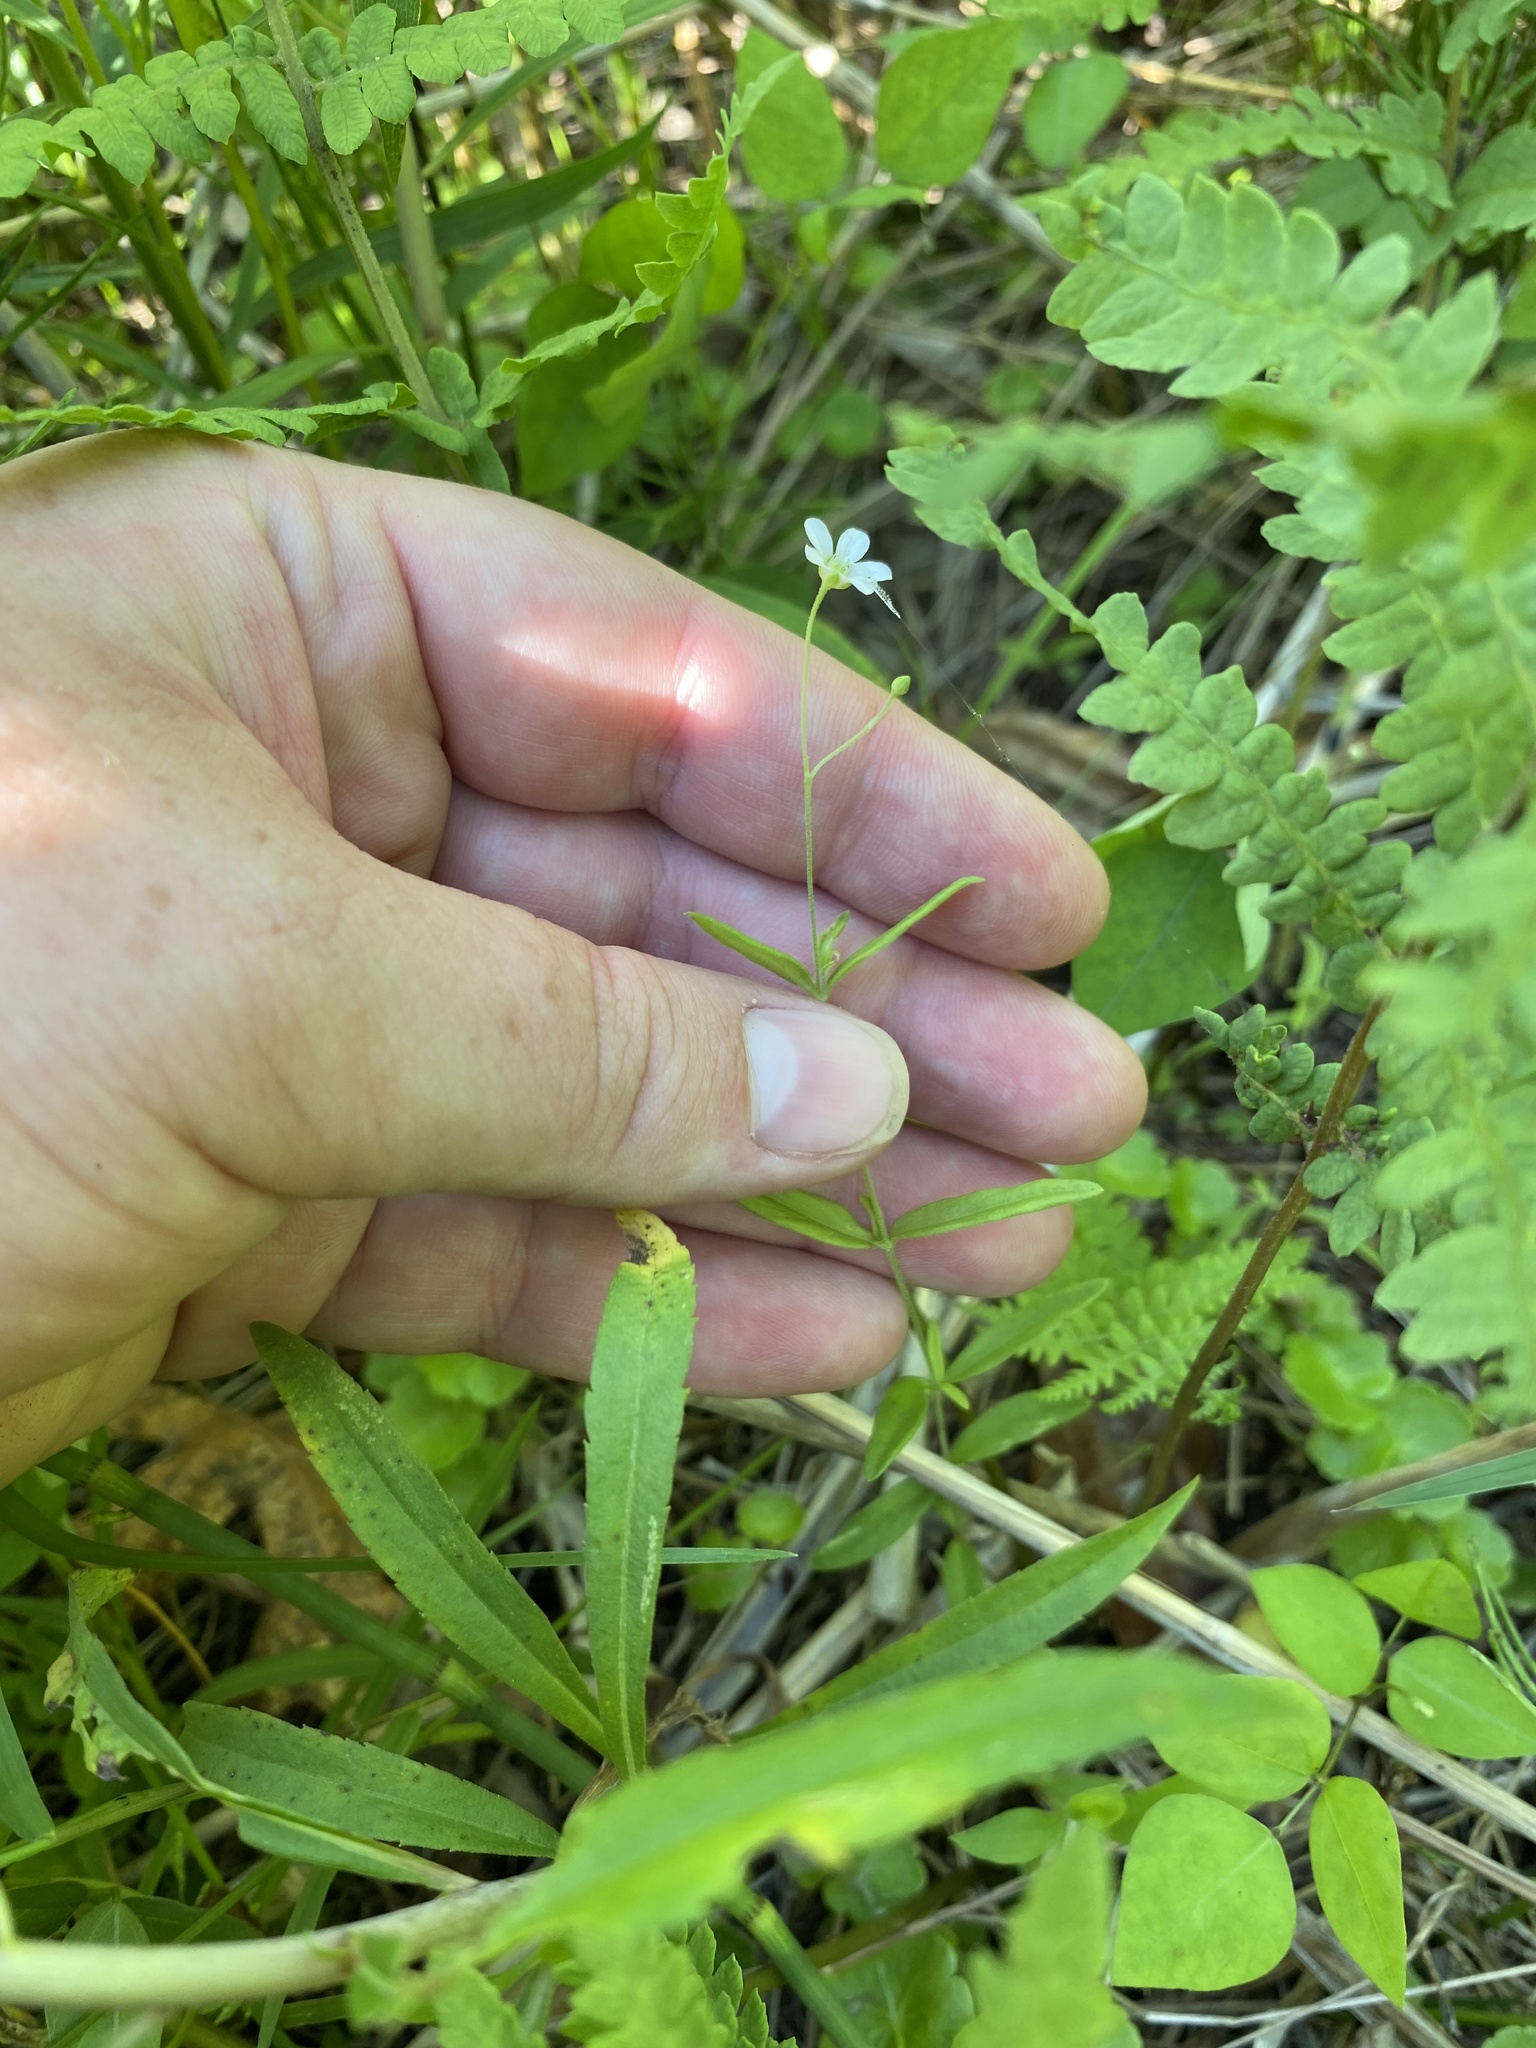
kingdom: Plantae
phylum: Tracheophyta
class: Magnoliopsida
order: Caryophyllales
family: Caryophyllaceae
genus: Moehringia
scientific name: Moehringia lateriflora
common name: Blunt-leaved sandwort
